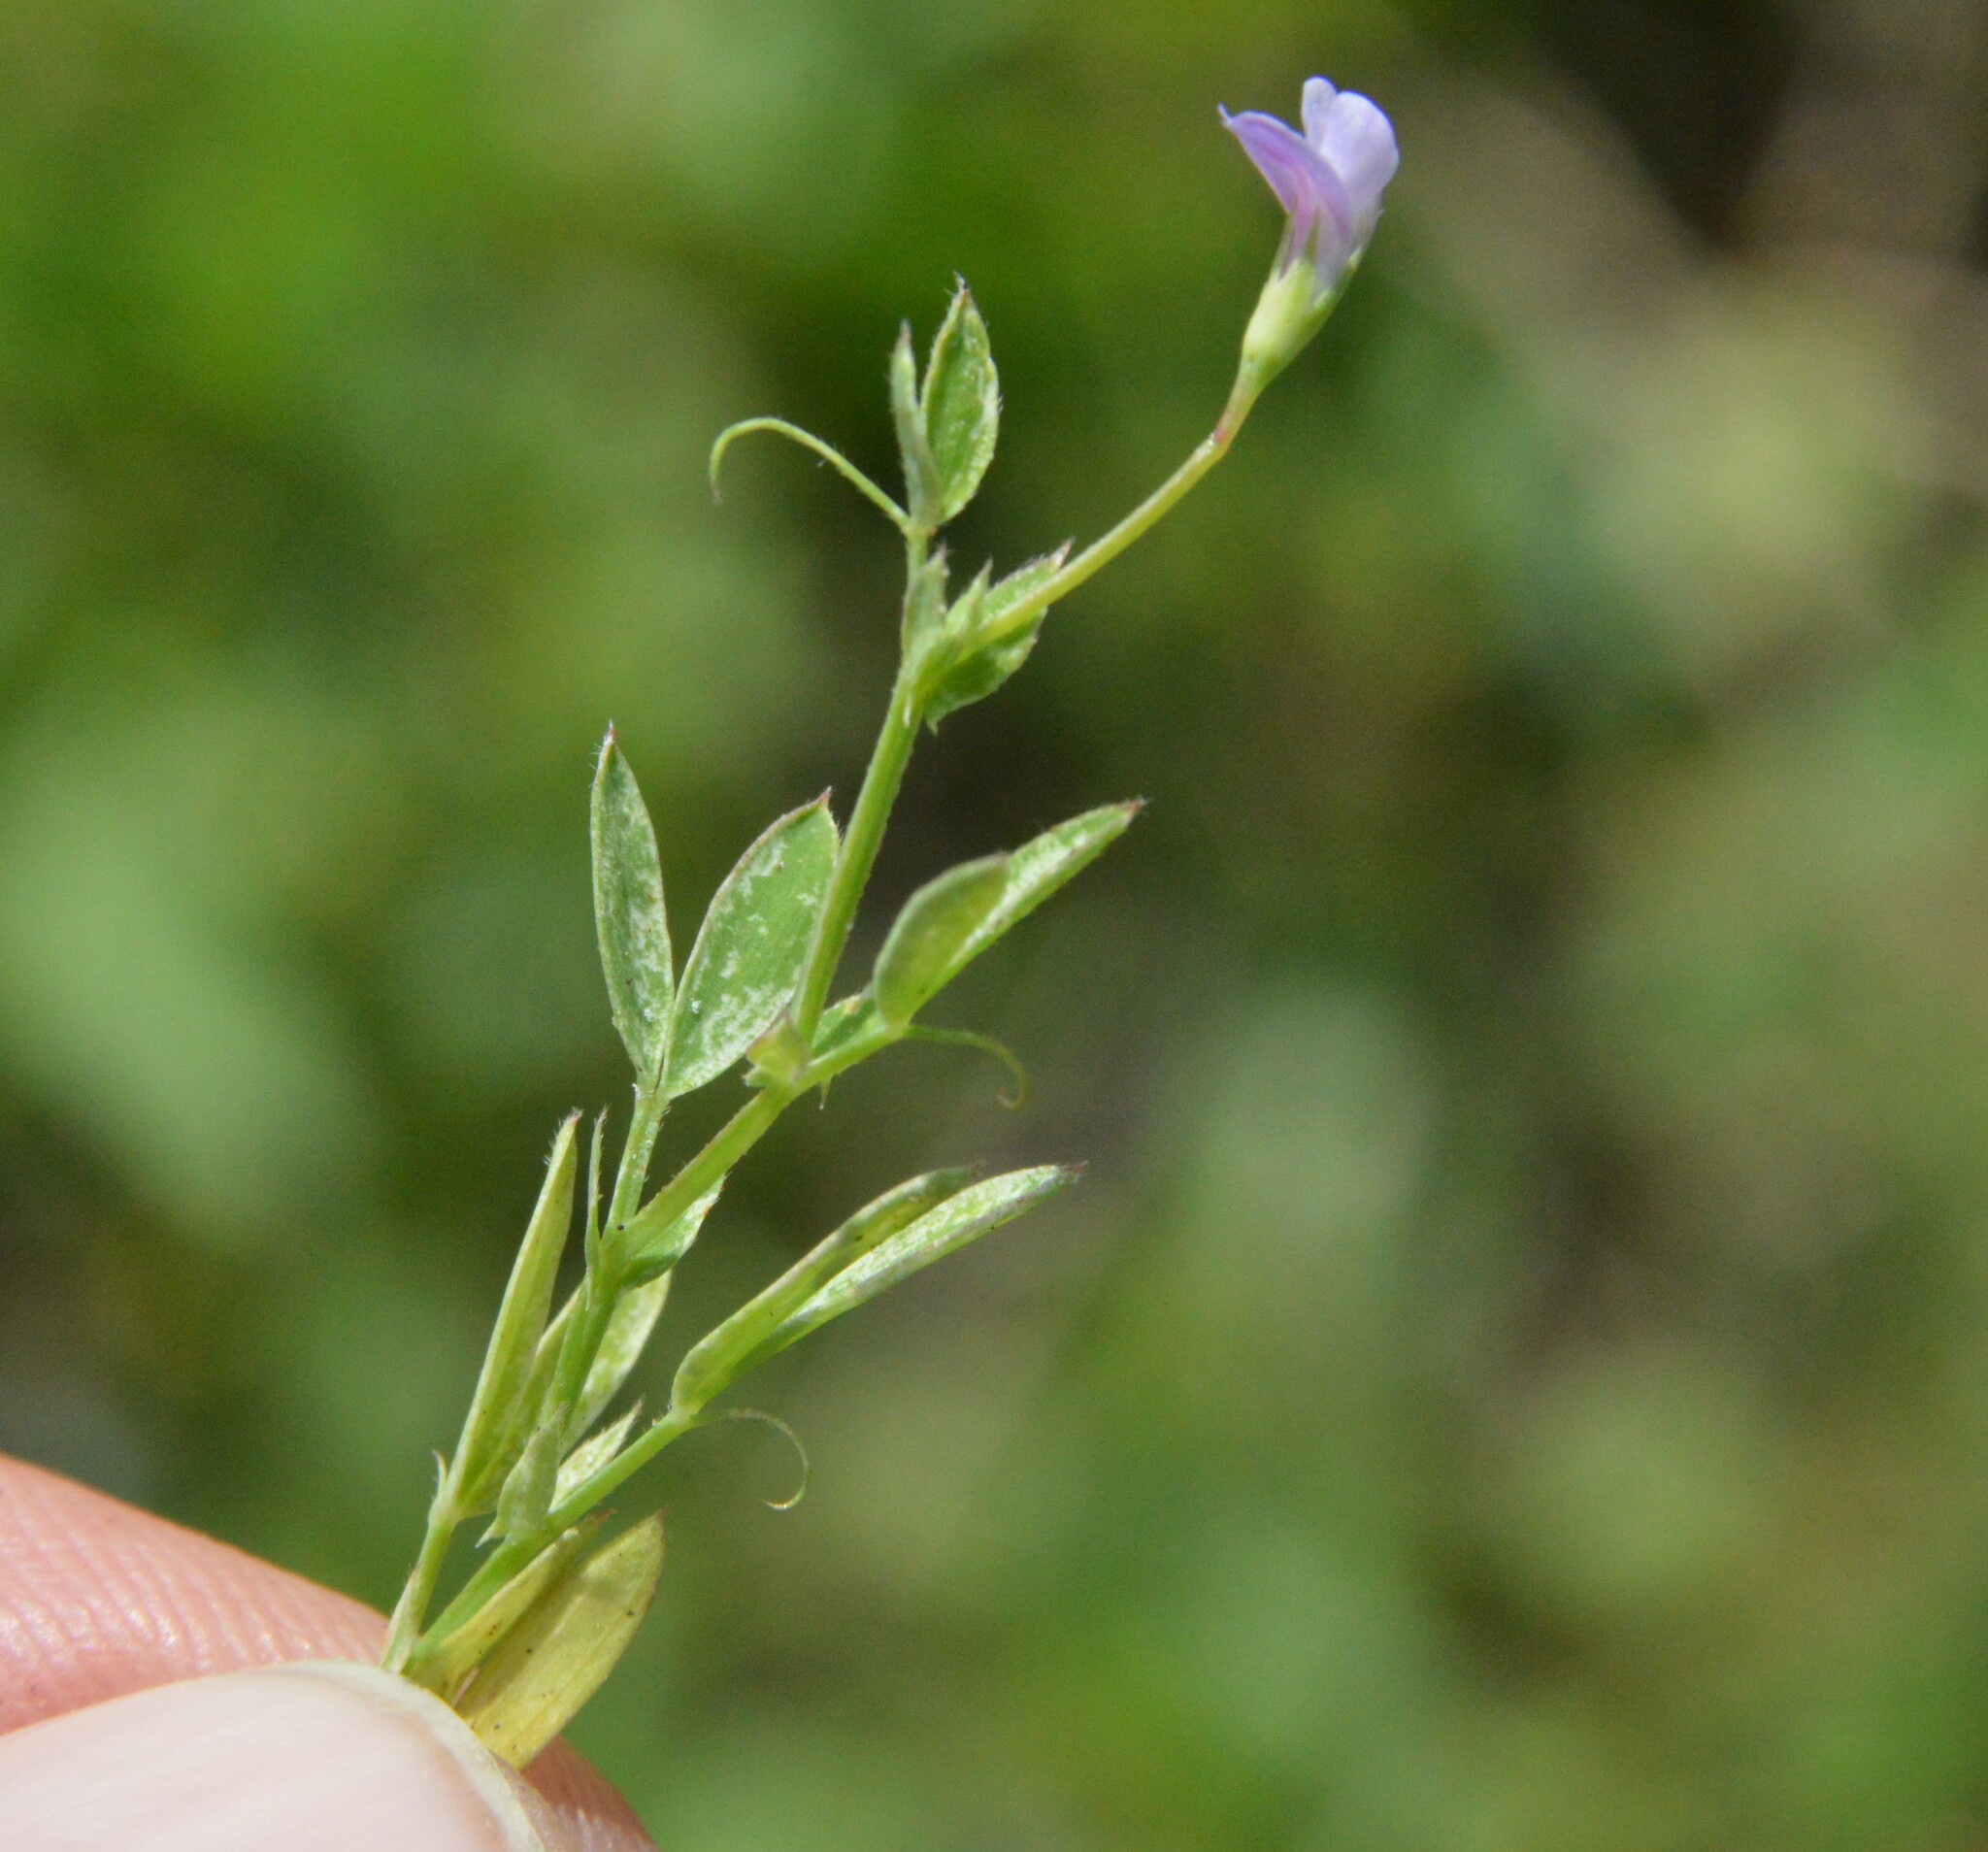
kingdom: Plantae
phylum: Tracheophyta
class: Magnoliopsida
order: Fabales
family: Fabaceae
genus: Lathyrus
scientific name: Lathyrus pusillus
